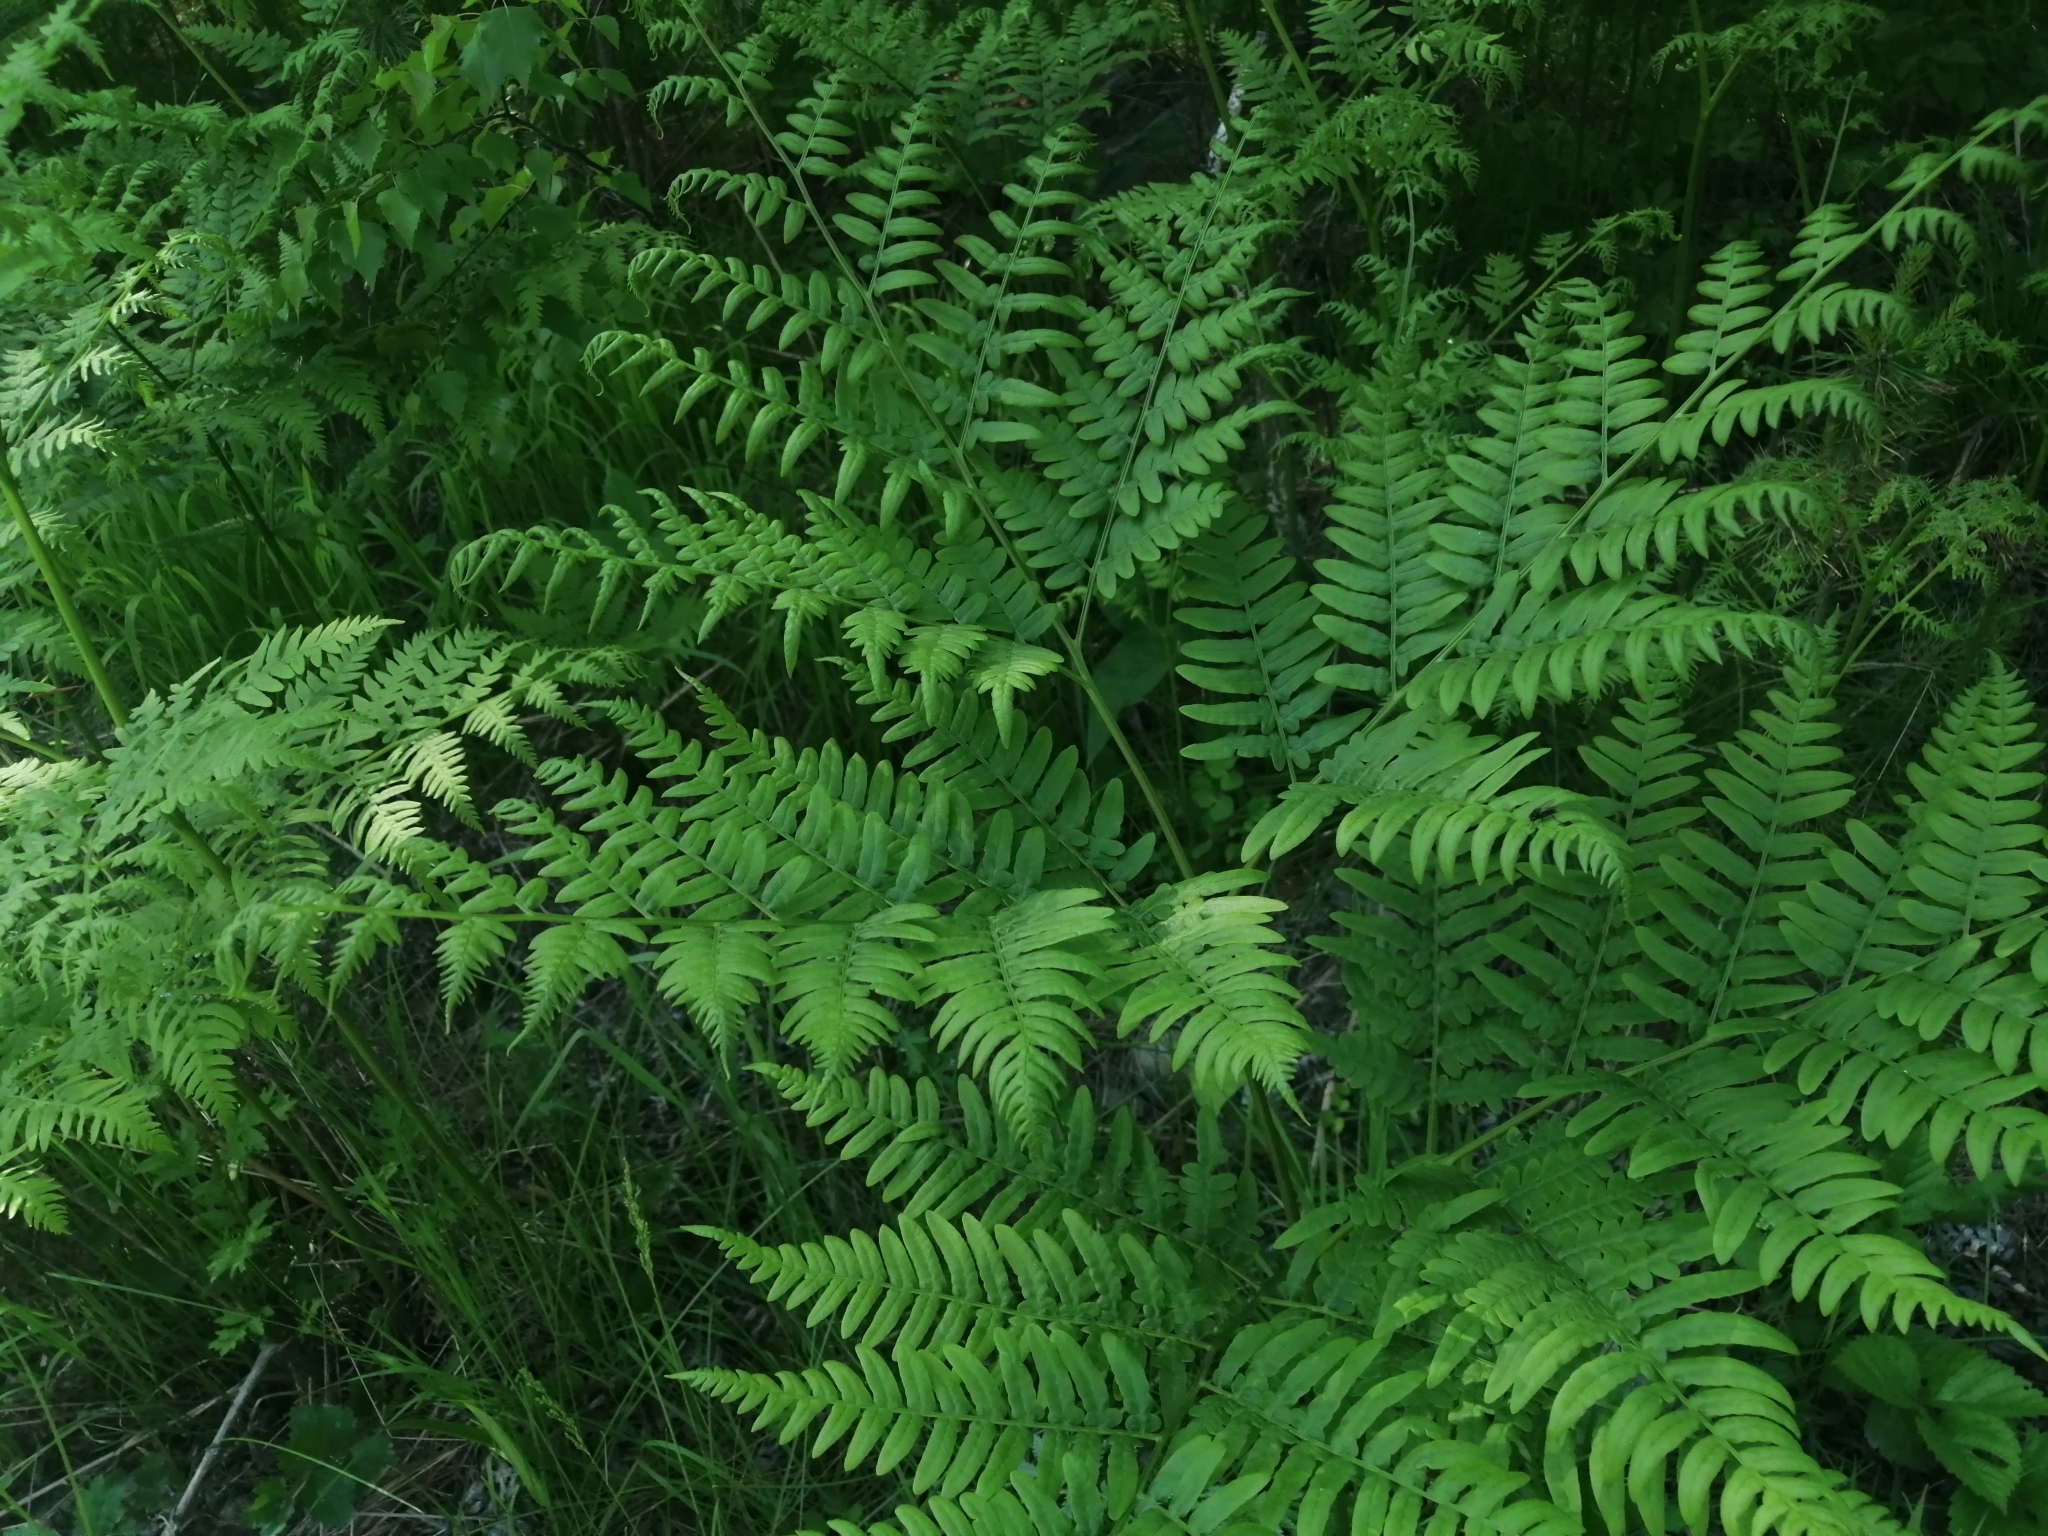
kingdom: Plantae
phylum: Tracheophyta
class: Polypodiopsida
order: Polypodiales
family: Dennstaedtiaceae
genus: Pteridium
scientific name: Pteridium aquilinum
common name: Bracken
